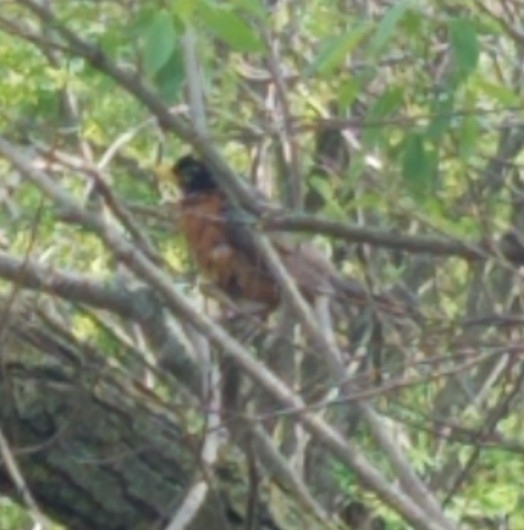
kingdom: Animalia
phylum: Chordata
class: Aves
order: Passeriformes
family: Turdidae
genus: Turdus
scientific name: Turdus migratorius
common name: American robin
